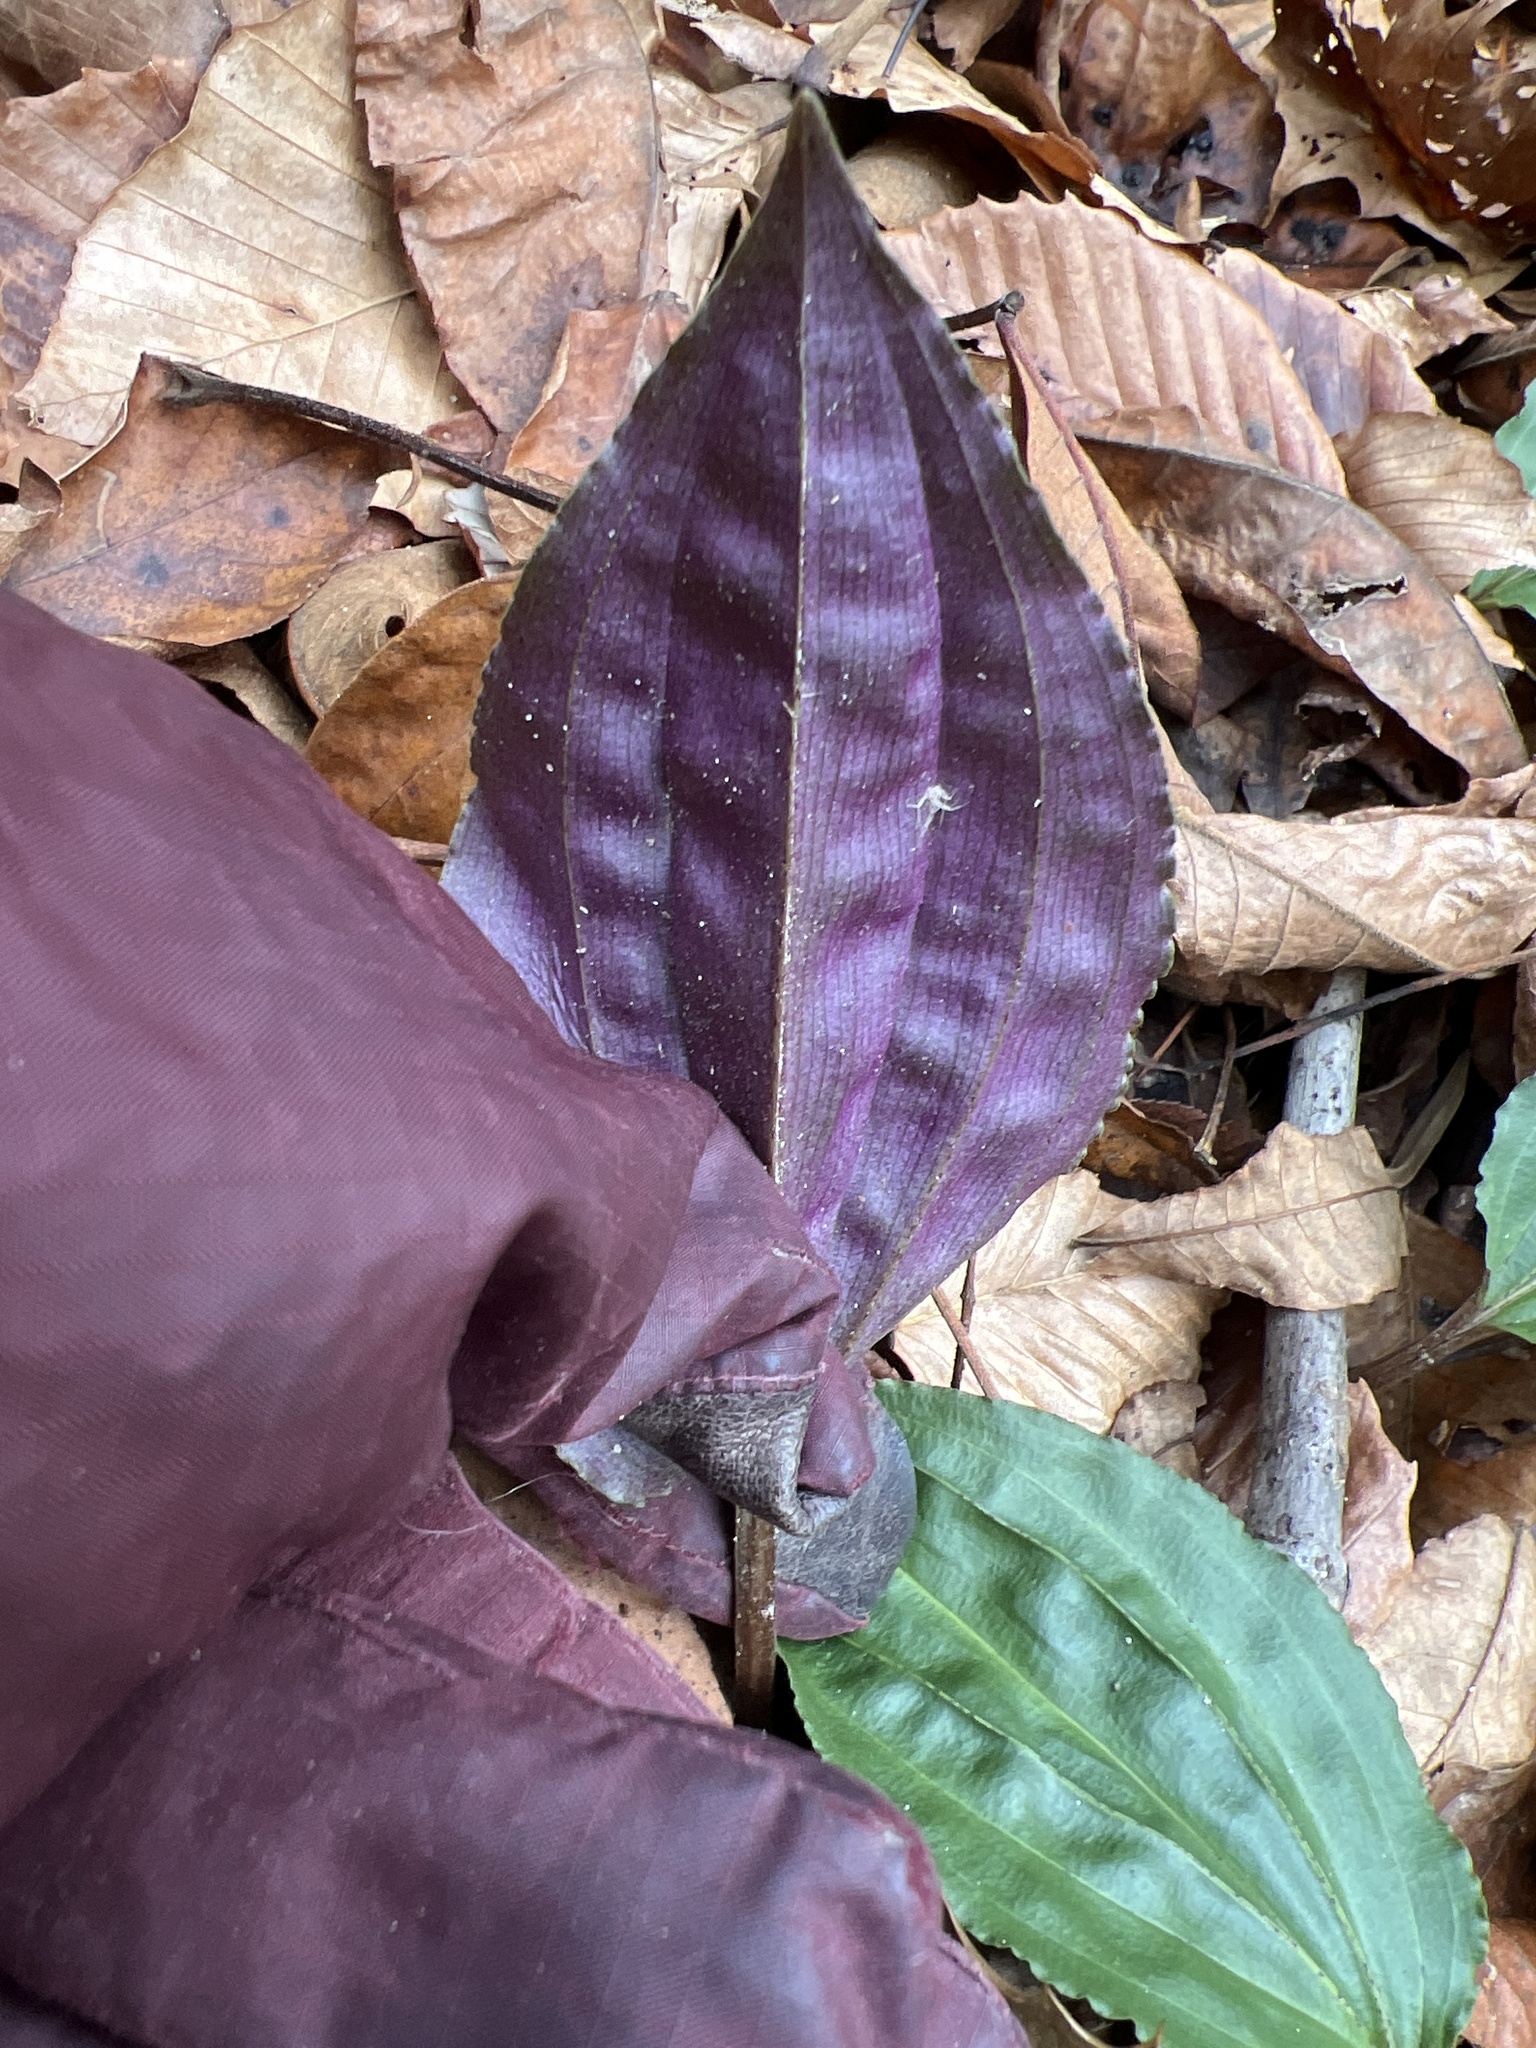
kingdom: Plantae
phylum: Tracheophyta
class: Liliopsida
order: Asparagales
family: Orchidaceae
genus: Tipularia
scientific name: Tipularia discolor
